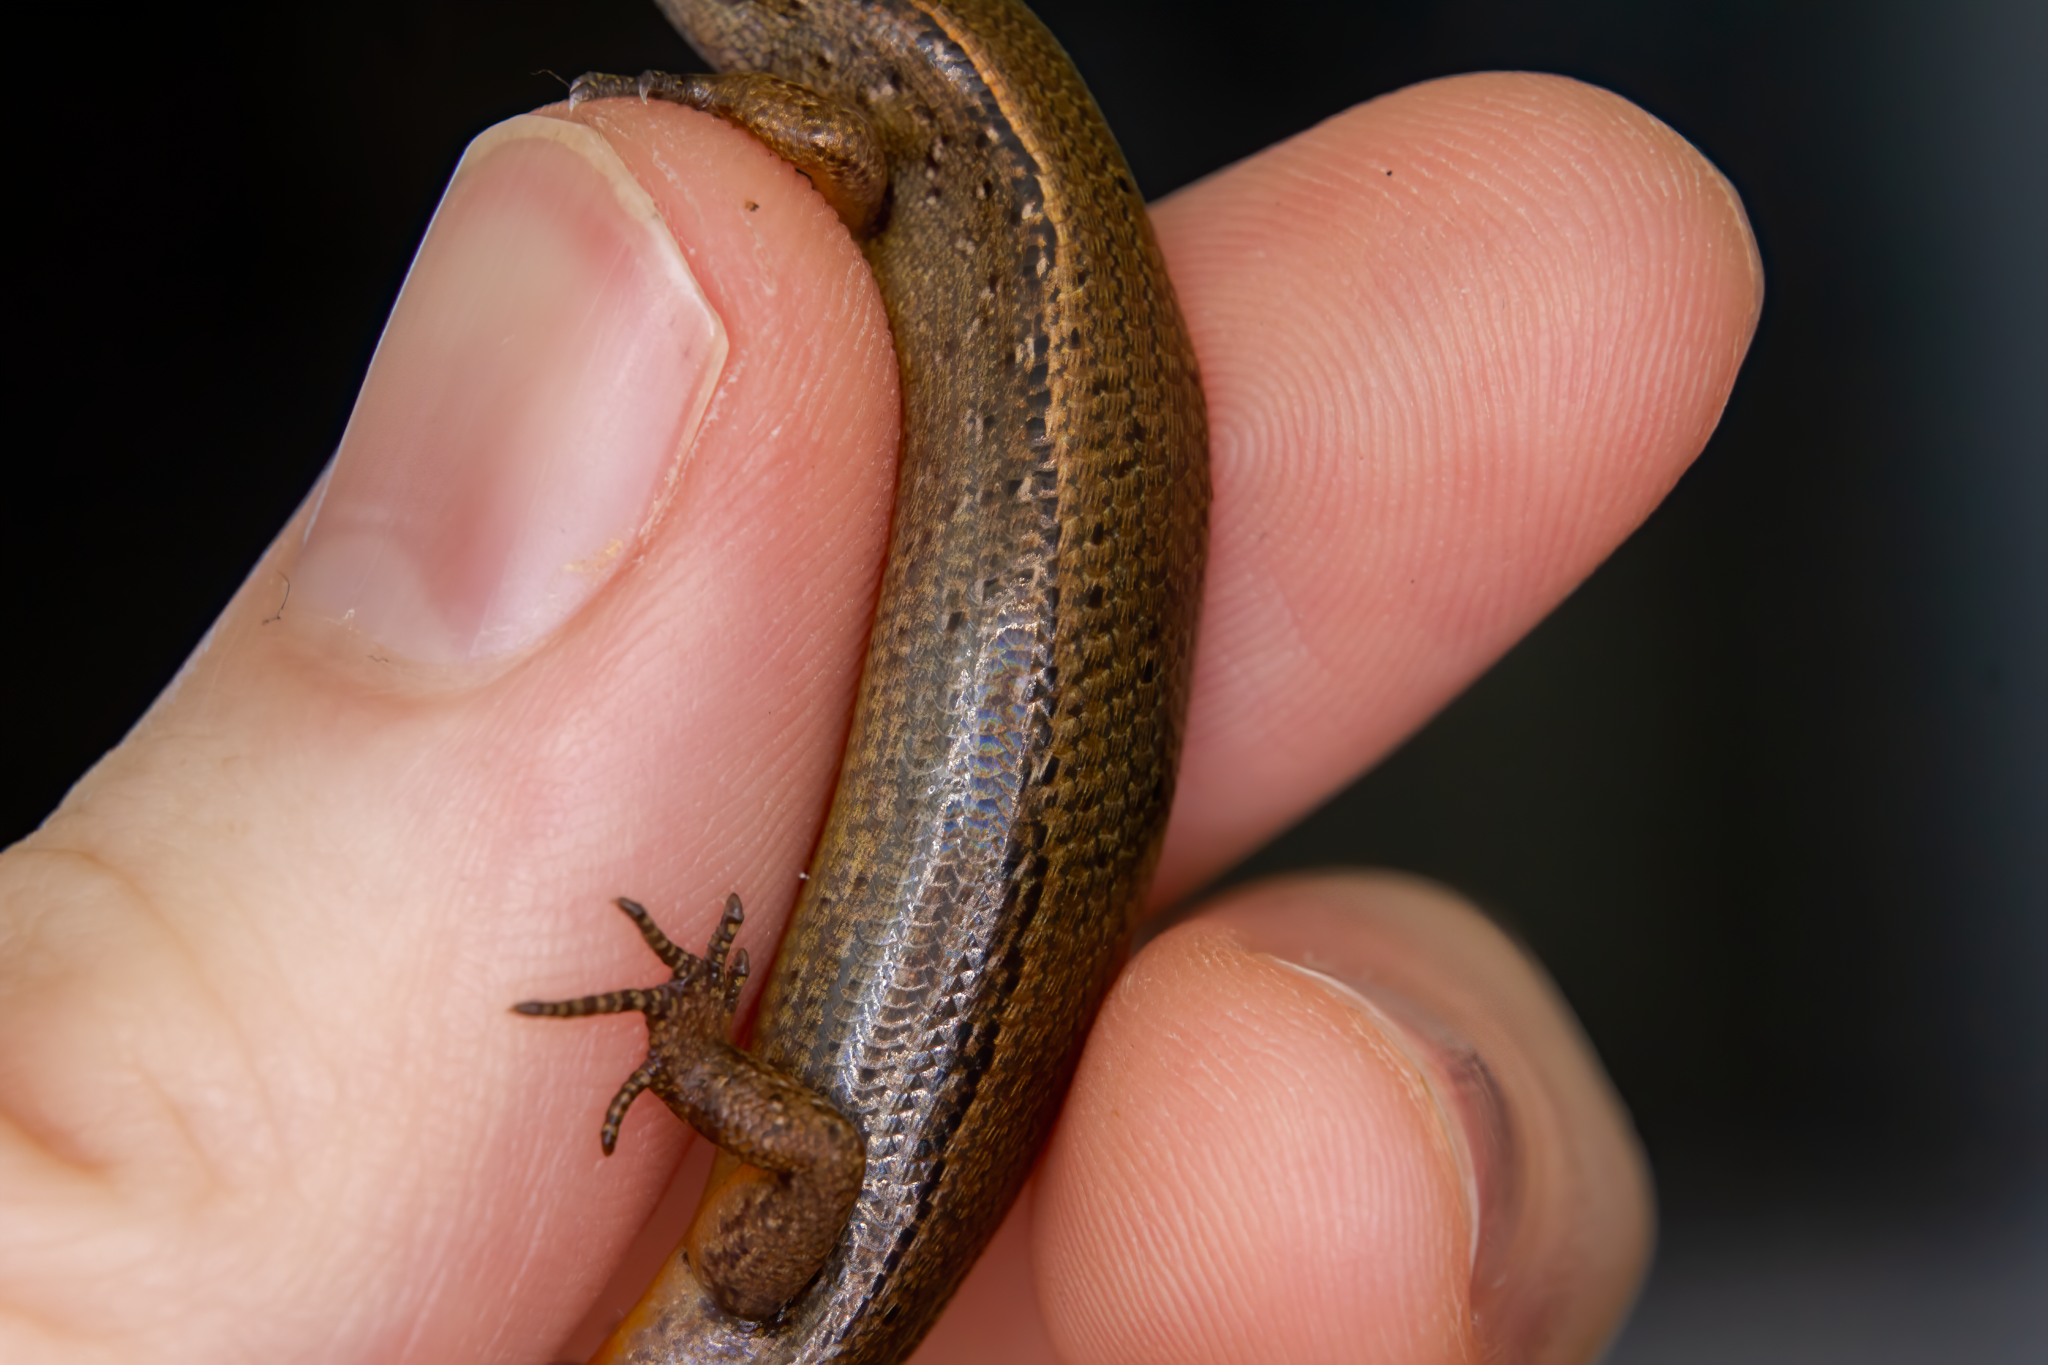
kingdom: Animalia
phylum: Chordata
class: Squamata
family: Scincidae
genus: Oligosoma
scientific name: Oligosoma aeneum
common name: Copper skink
